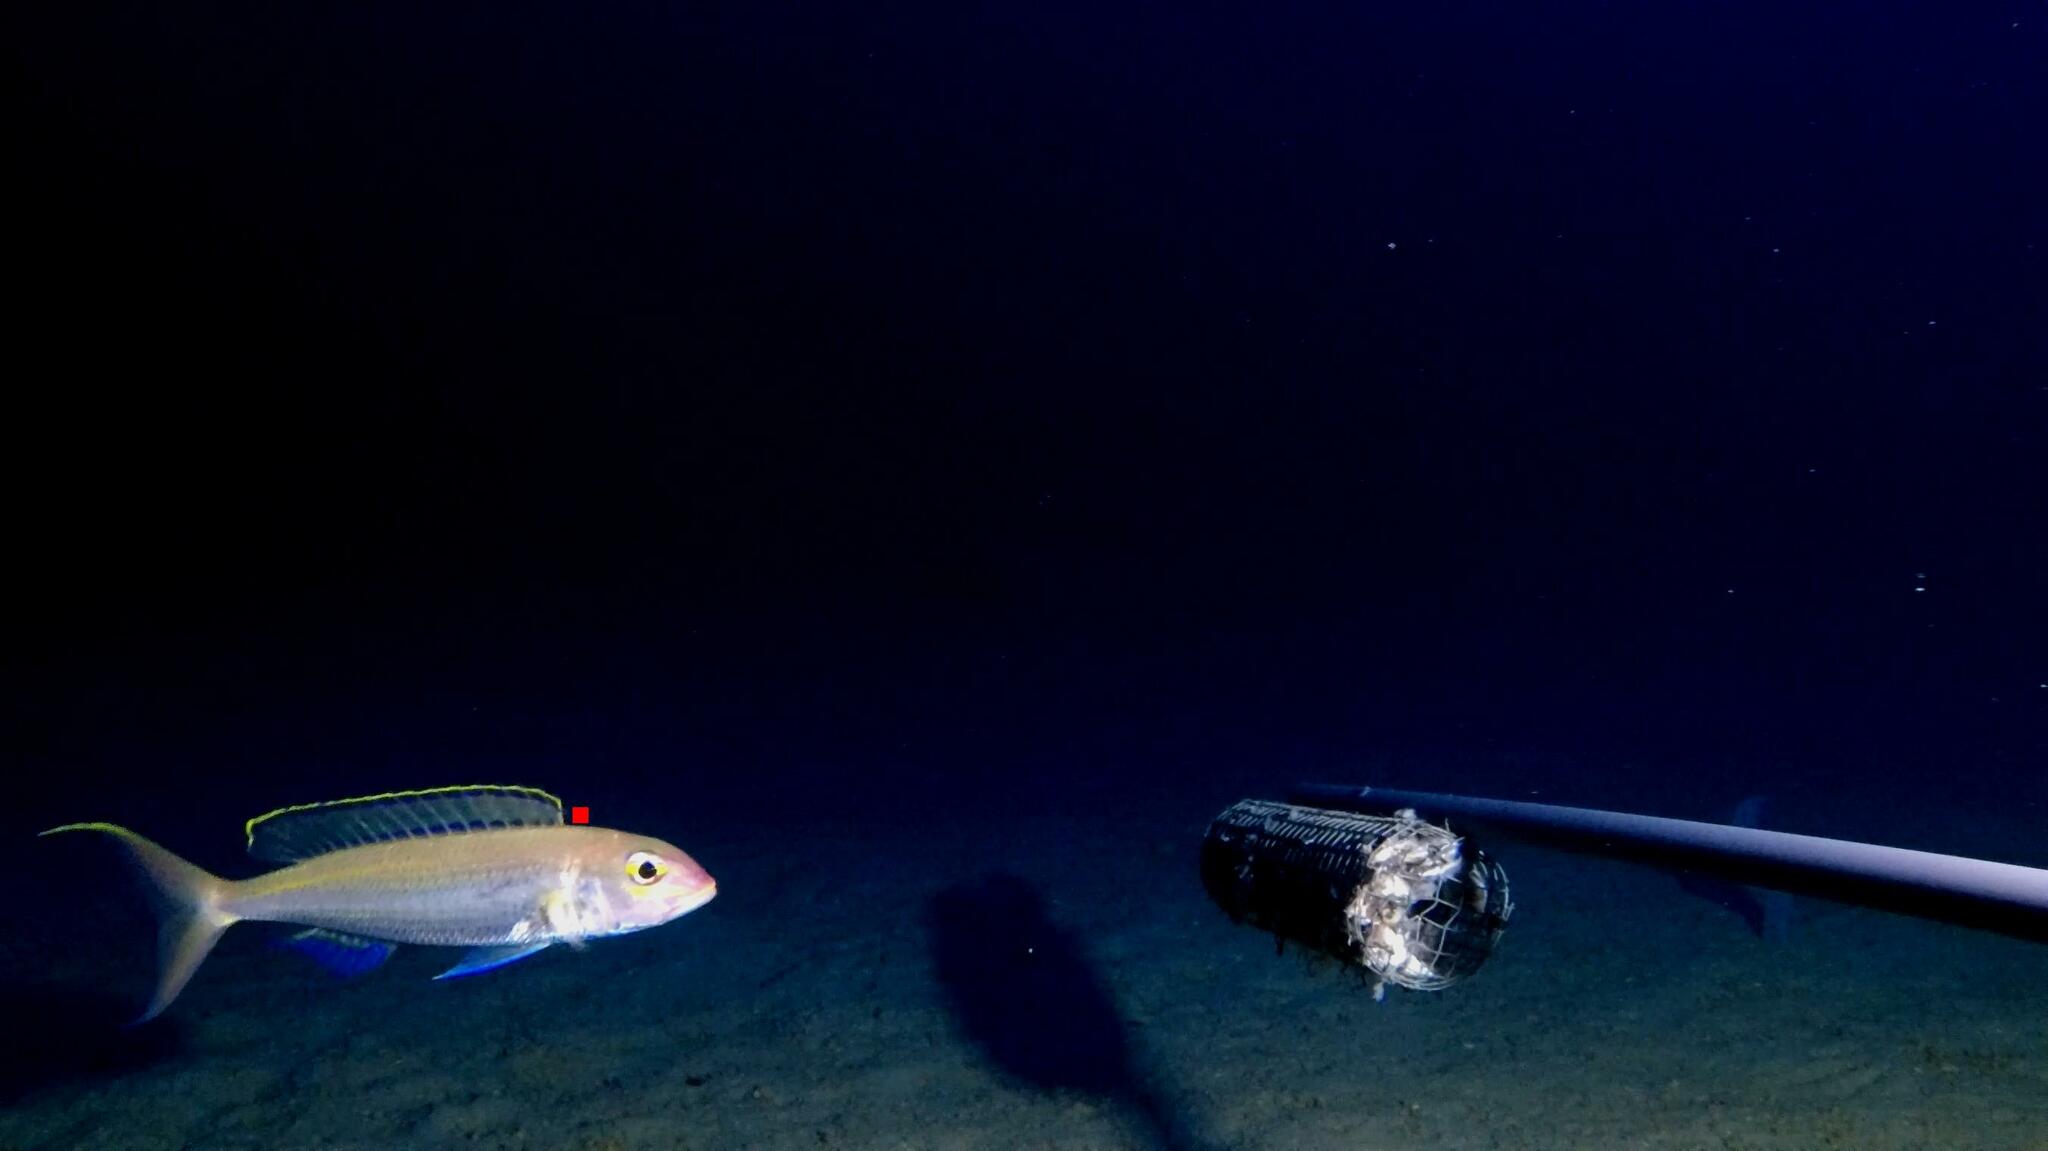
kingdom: Animalia
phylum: Chordata
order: Perciformes
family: Nemipteridae
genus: Nemipterus
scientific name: Nemipterus zysron
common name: Slender threadfin bream
